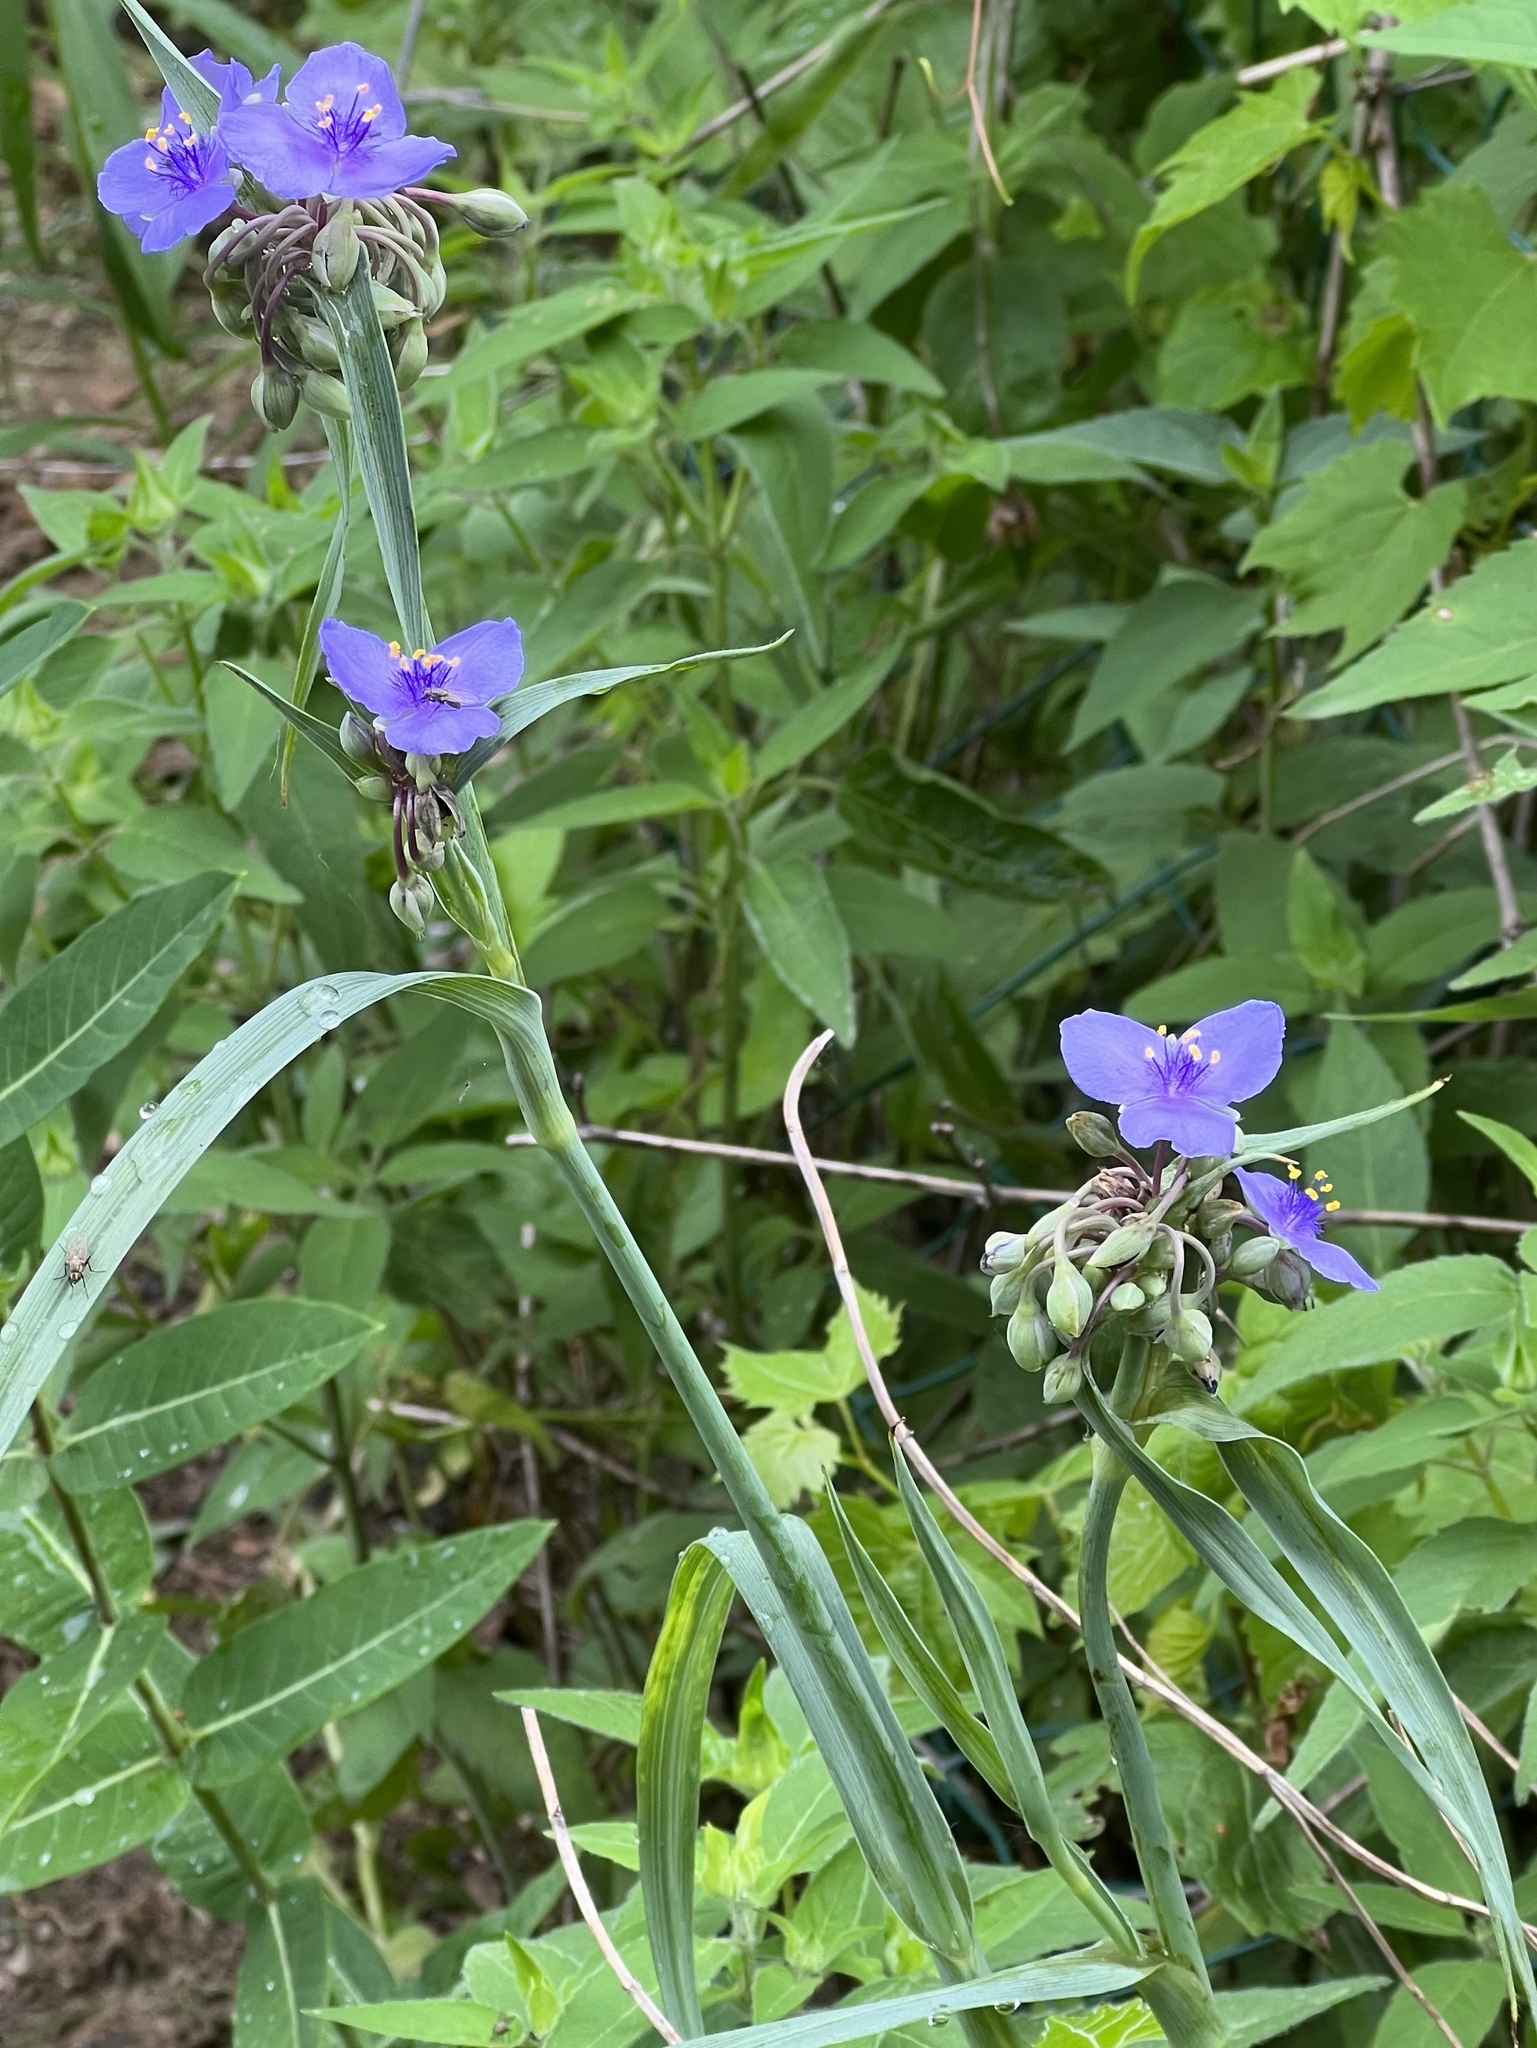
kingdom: Plantae
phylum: Tracheophyta
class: Liliopsida
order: Commelinales
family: Commelinaceae
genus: Tradescantia
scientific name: Tradescantia ohiensis
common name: Ohio spiderwort
